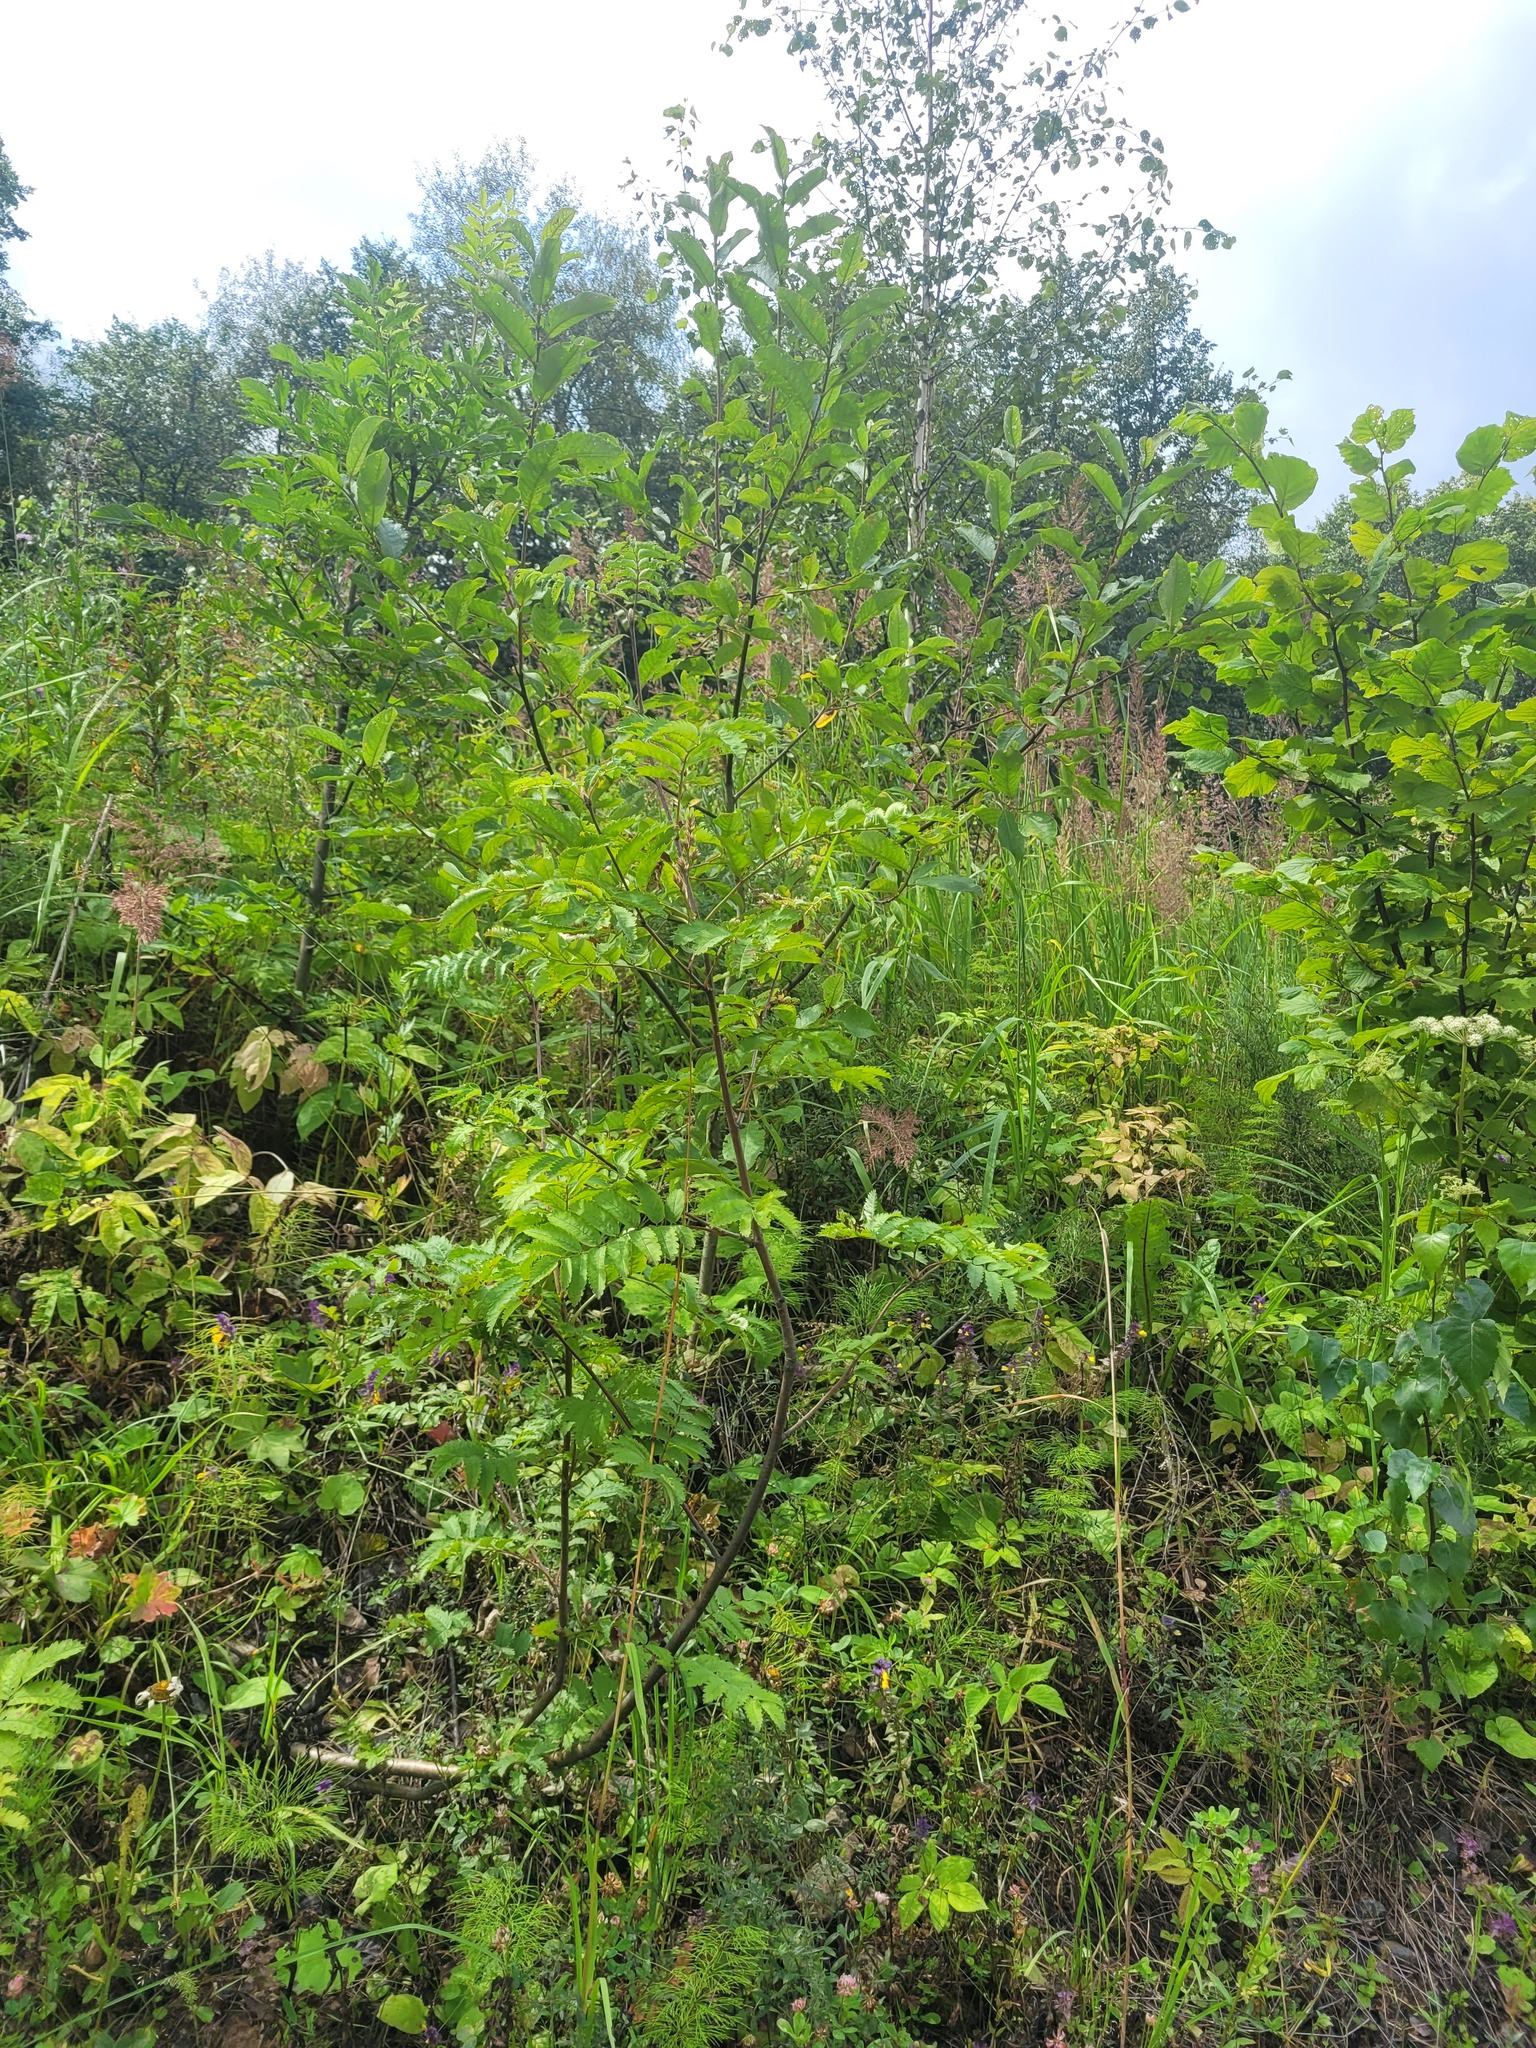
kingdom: Plantae
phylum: Tracheophyta
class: Magnoliopsida
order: Rosales
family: Rosaceae
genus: Sorbus
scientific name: Sorbus aucuparia
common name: Rowan
